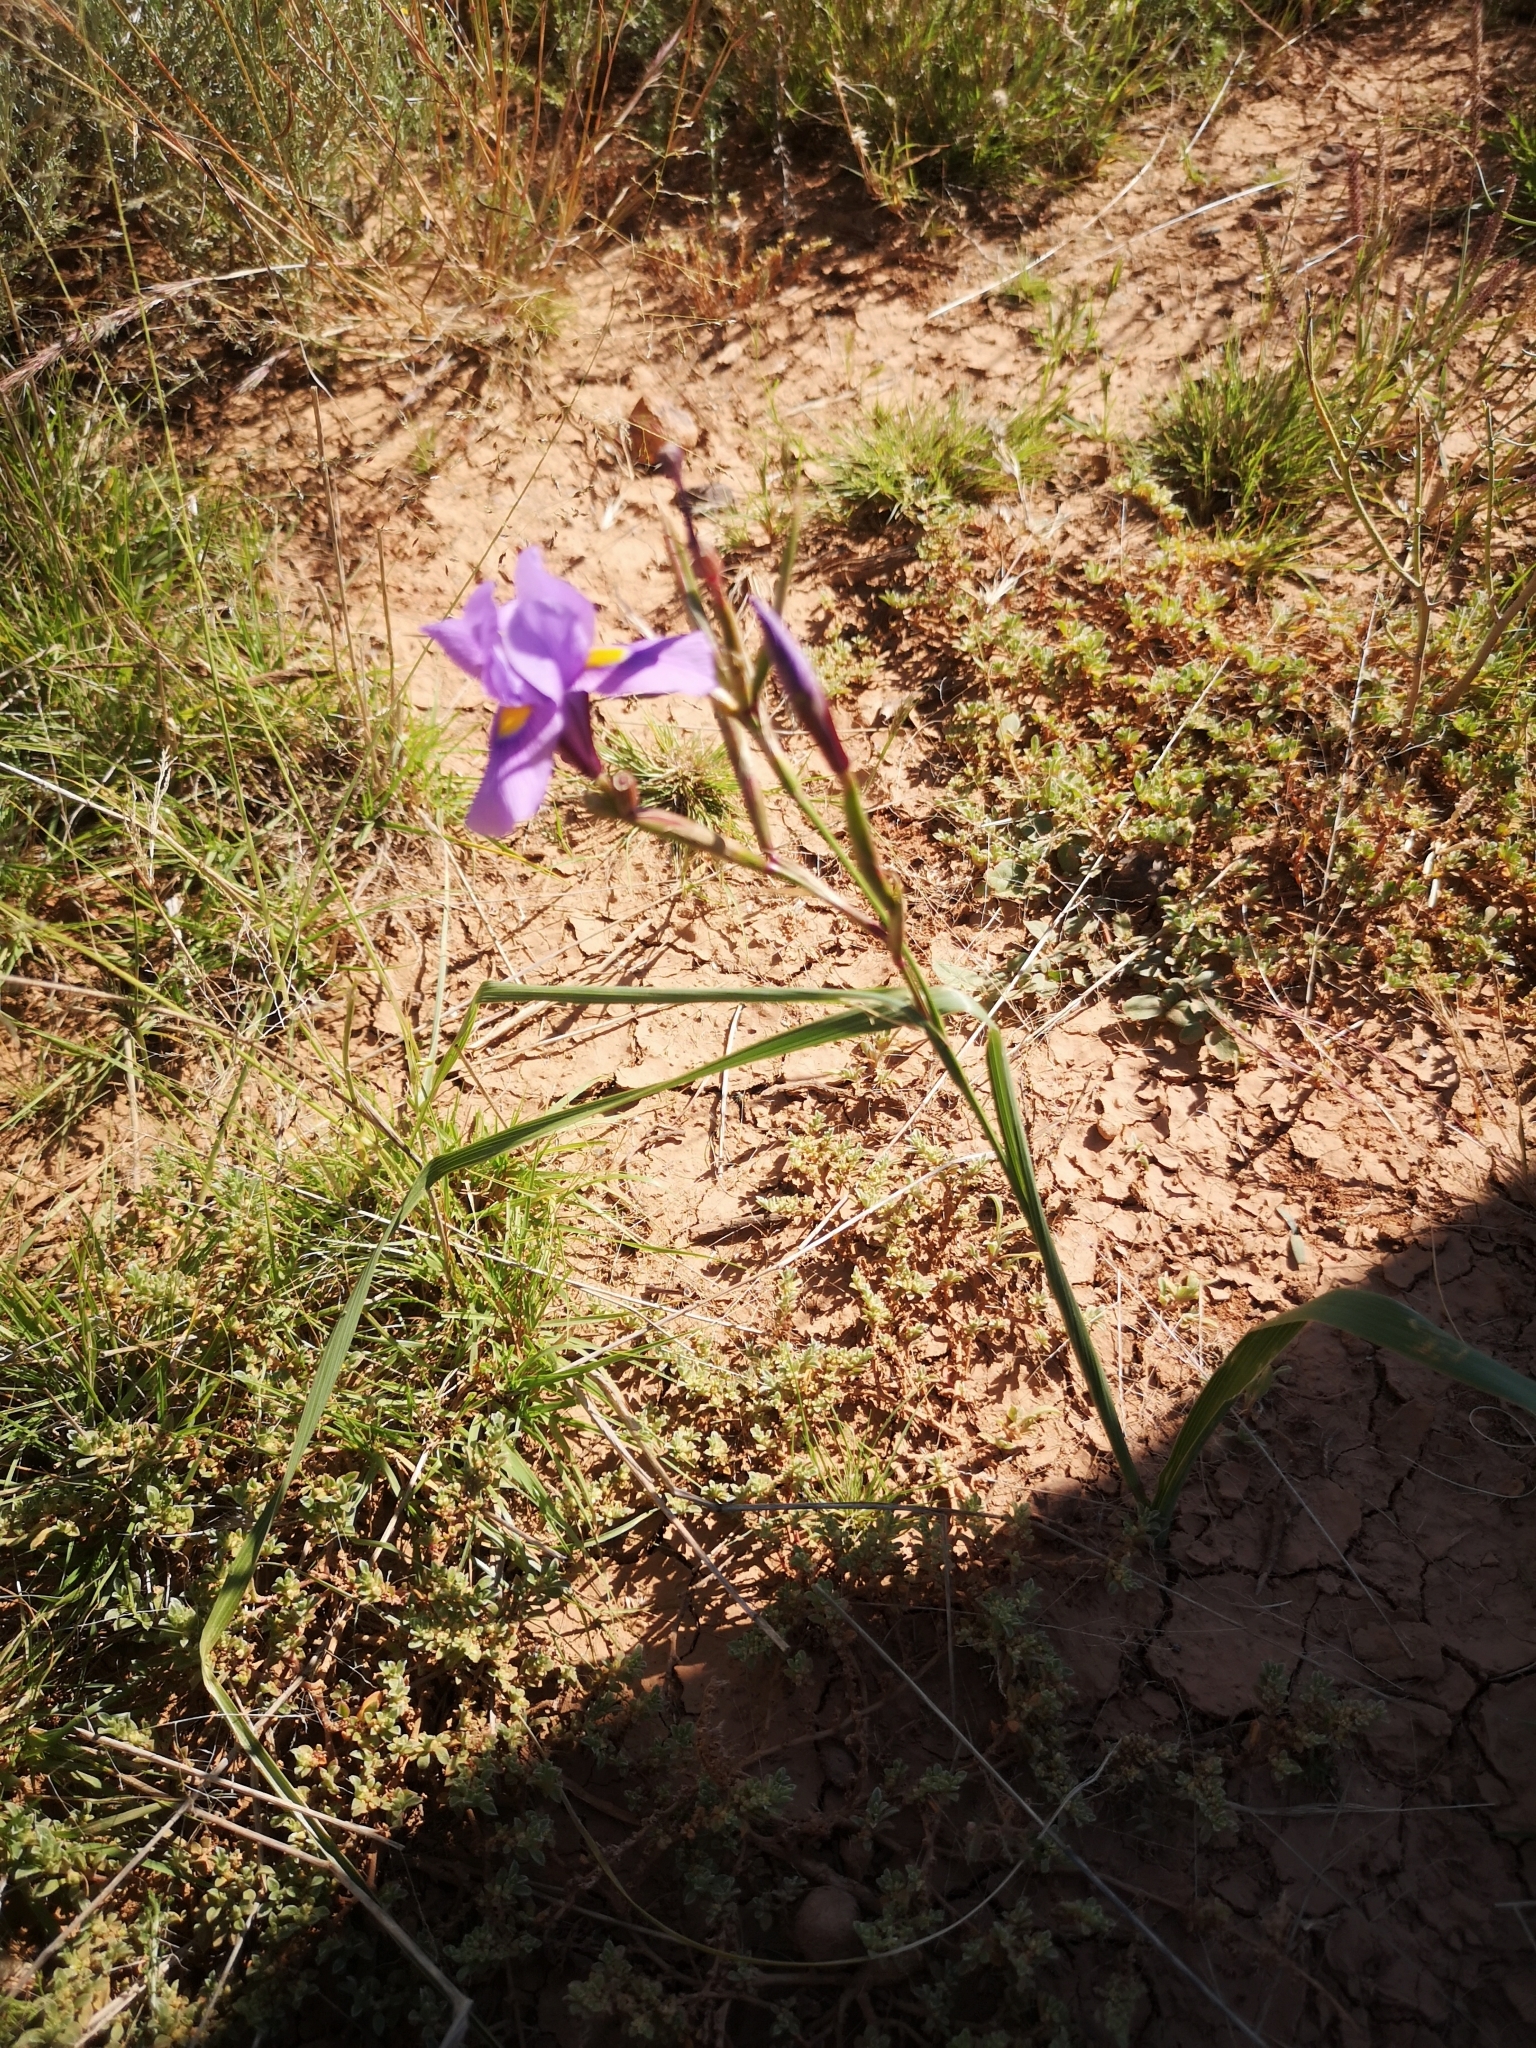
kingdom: Plantae
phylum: Tracheophyta
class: Liliopsida
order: Asparagales
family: Iridaceae
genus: Moraea
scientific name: Moraea polystachya
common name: Blue-tulip
